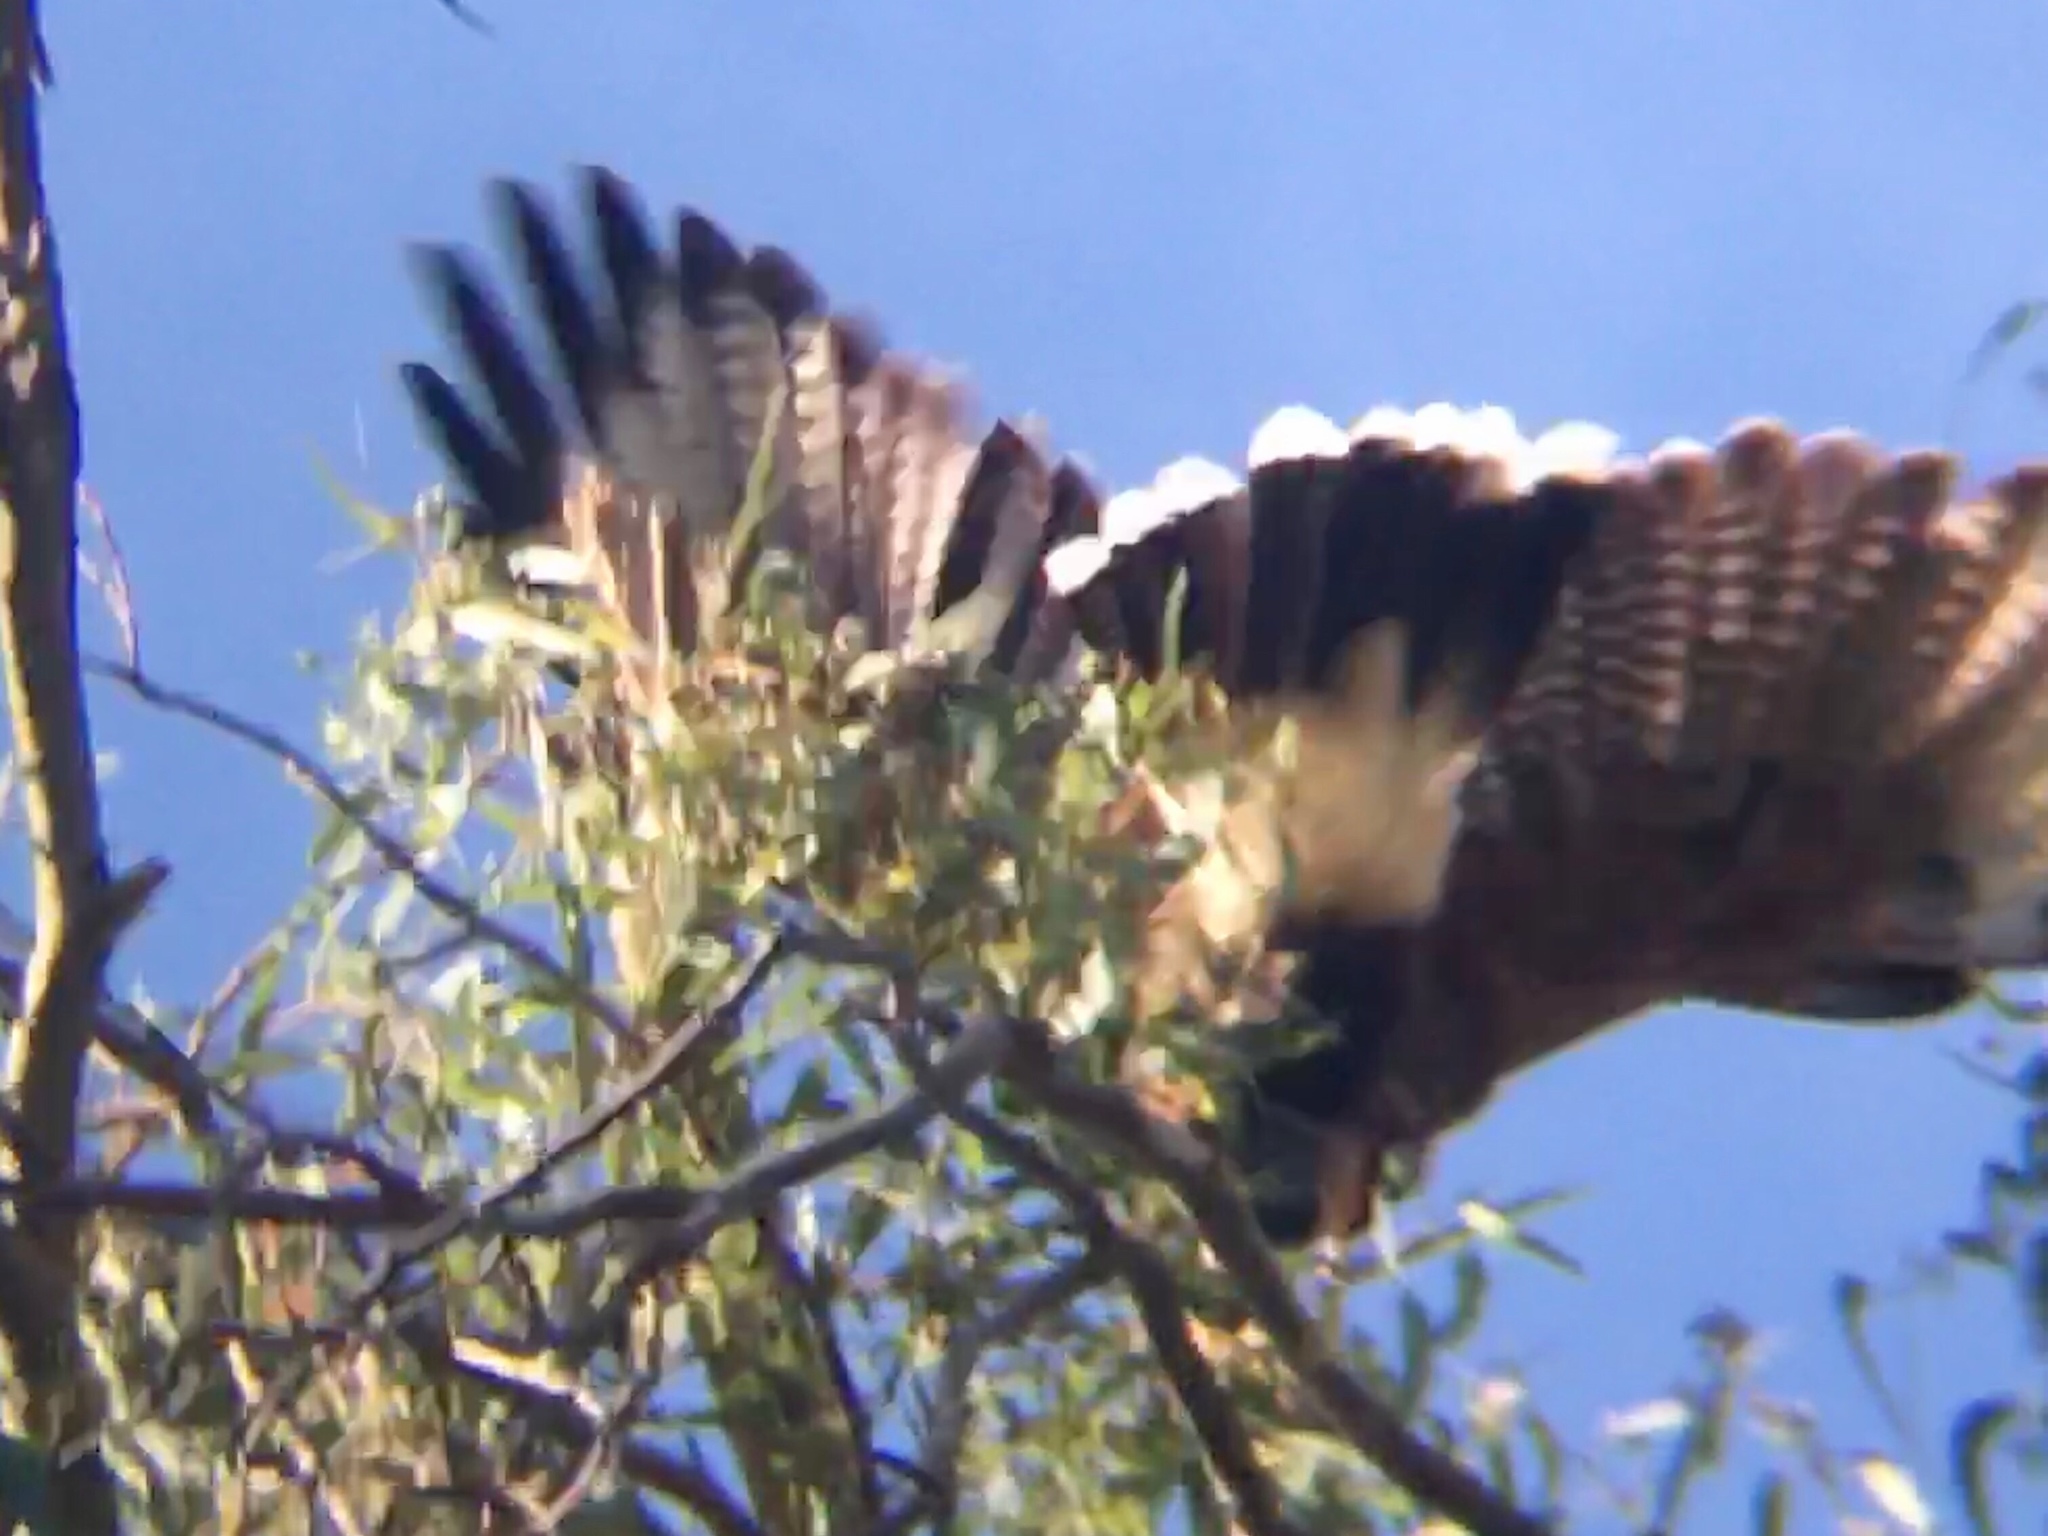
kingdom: Animalia
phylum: Chordata
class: Aves
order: Accipitriformes
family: Accipitridae
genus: Parabuteo
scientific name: Parabuteo unicinctus
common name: Harris's hawk
